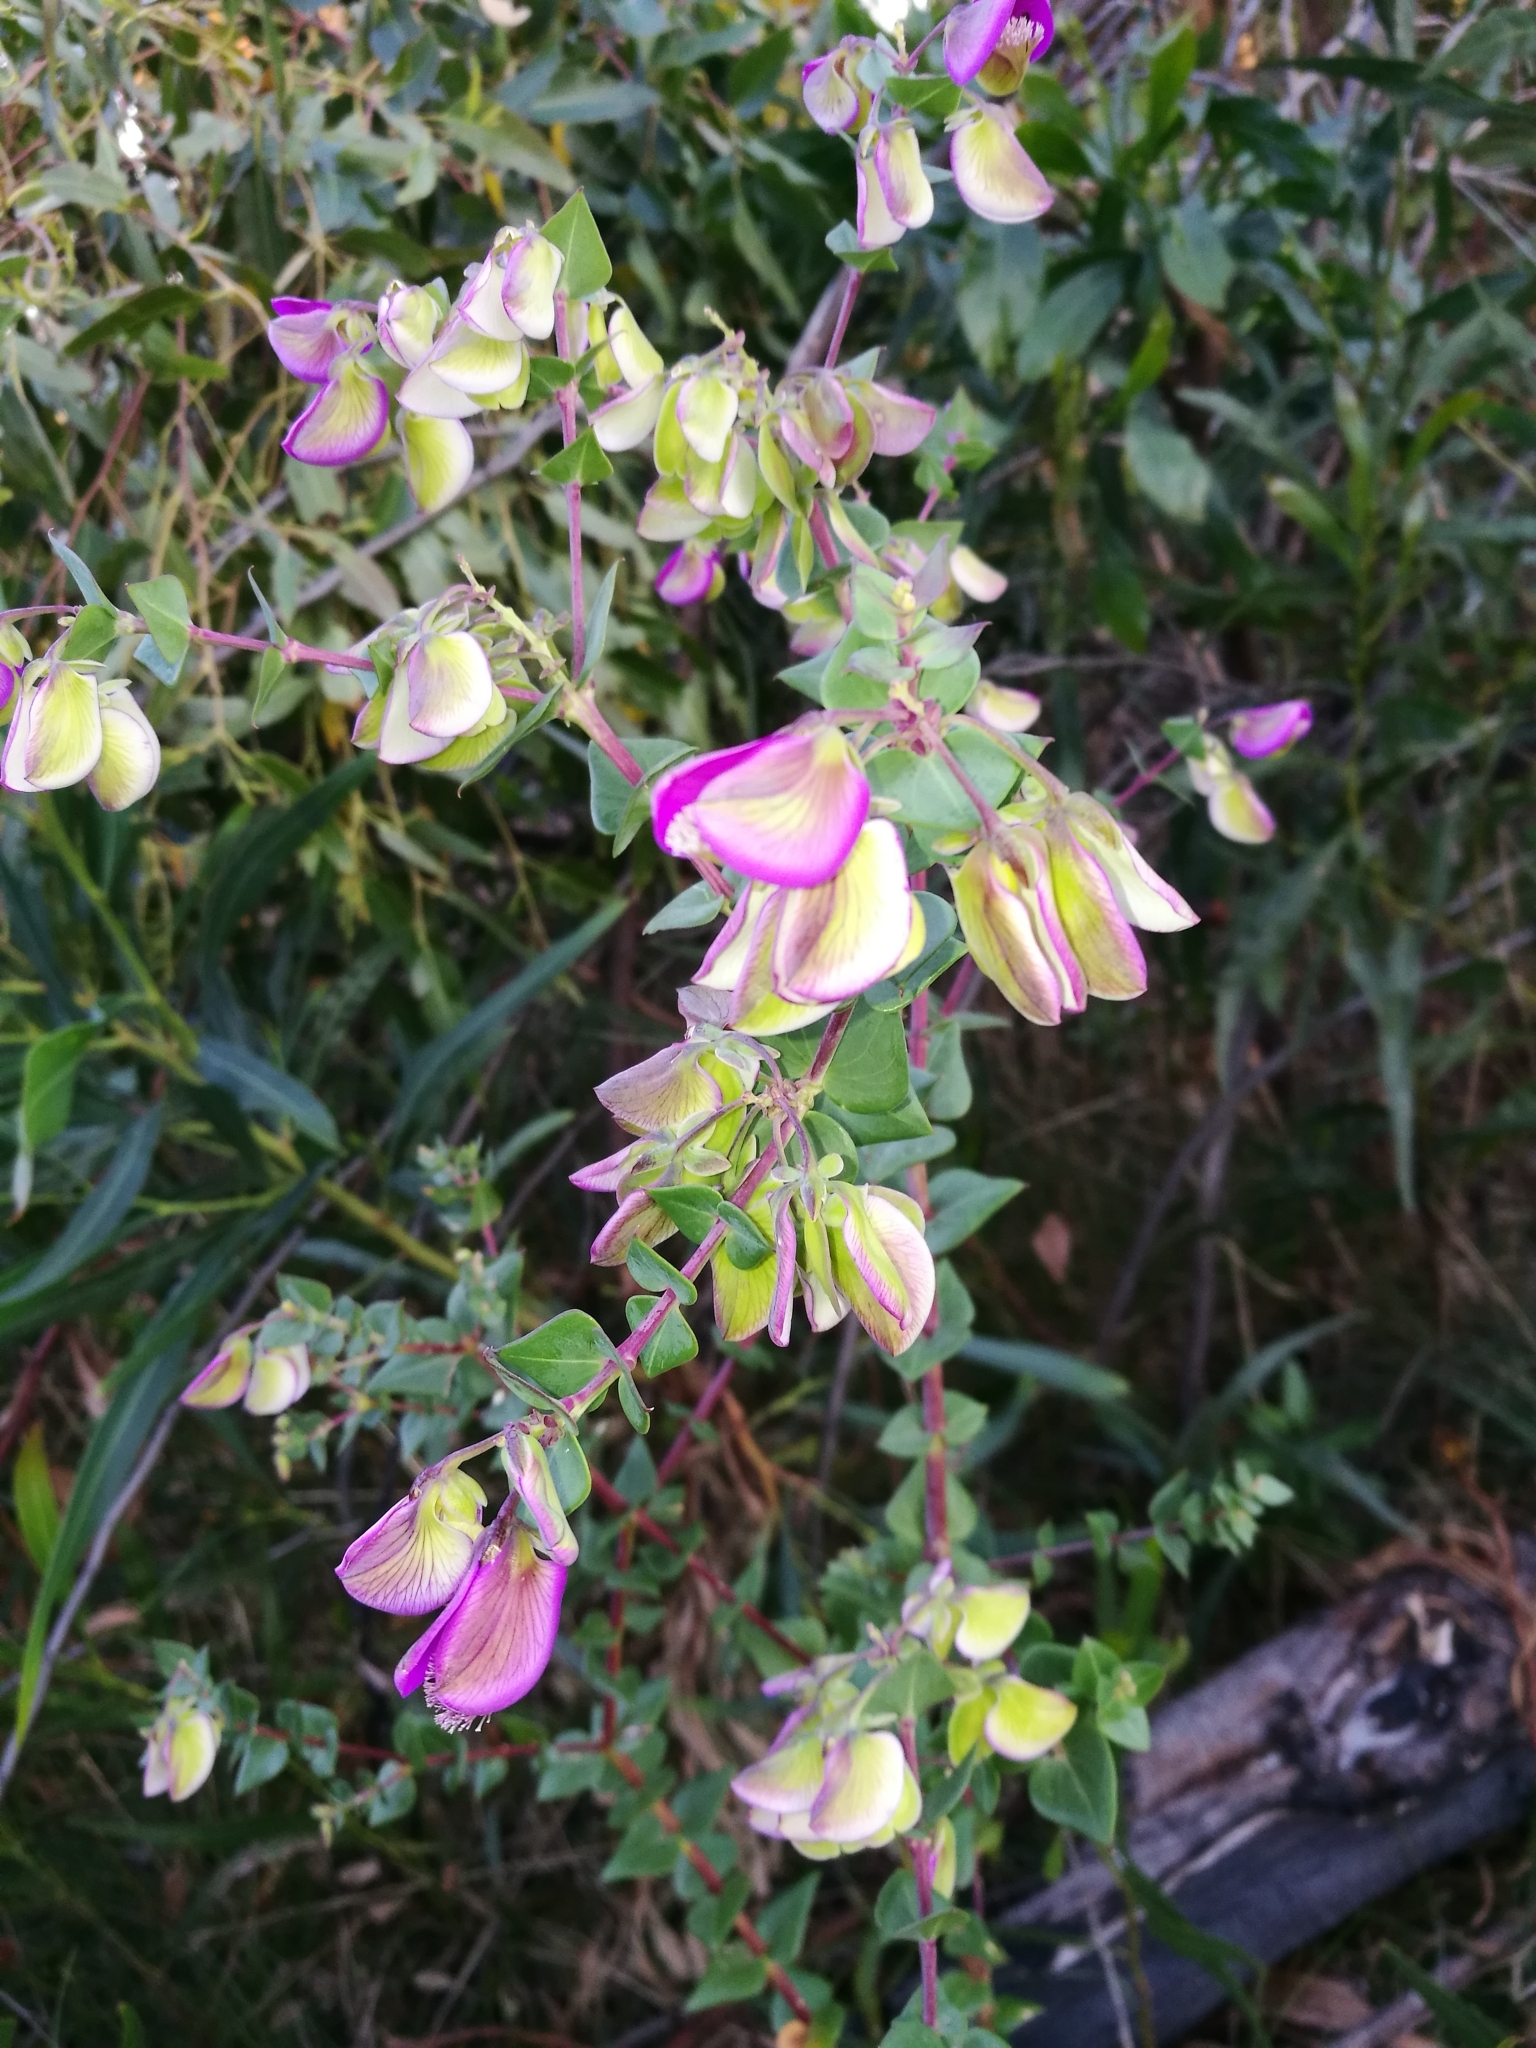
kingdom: Plantae
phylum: Tracheophyta
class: Magnoliopsida
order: Fabales
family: Polygalaceae
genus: Polygala
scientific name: Polygala fruticosa
